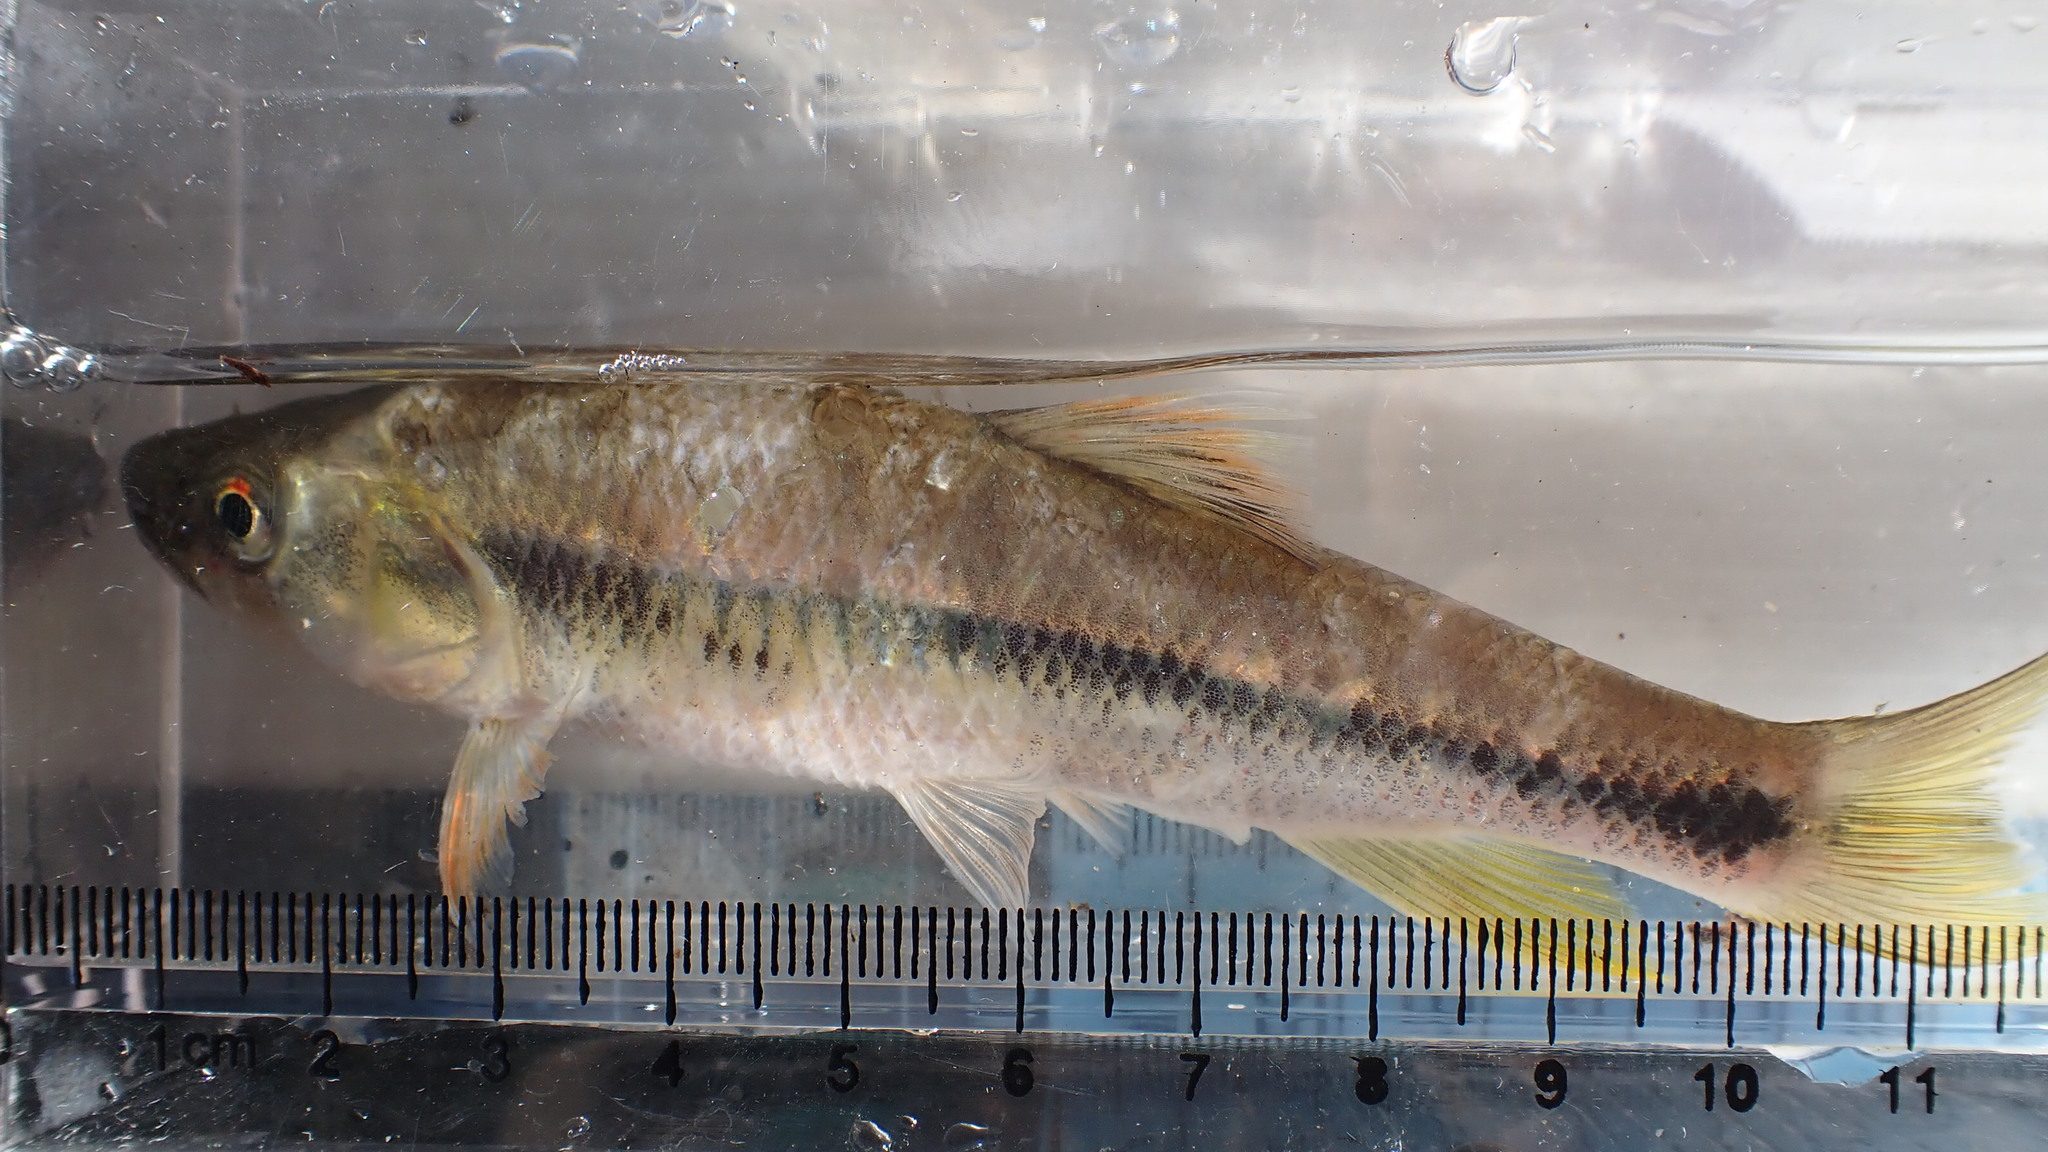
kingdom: Animalia
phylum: Chordata
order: Cypriniformes
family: Cyprinidae
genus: Candidia
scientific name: Candidia barbata
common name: Lake candidus dace
